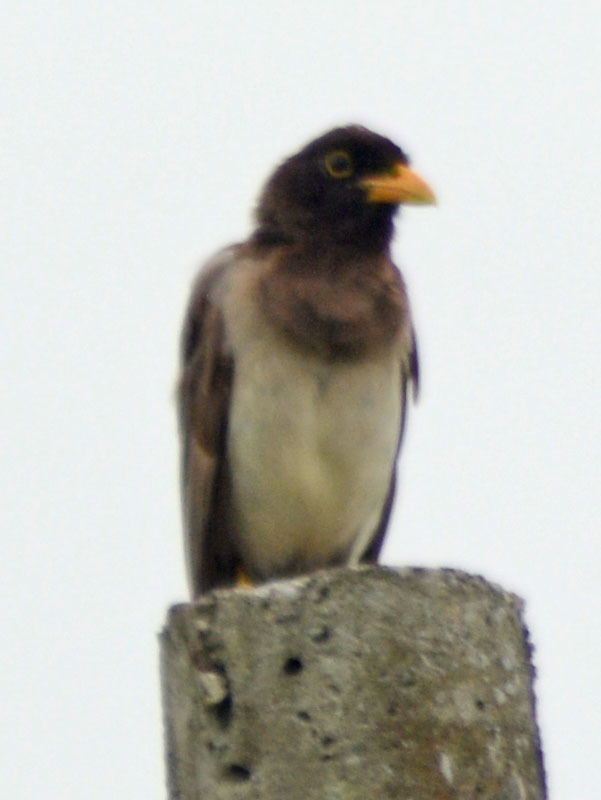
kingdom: Animalia
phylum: Chordata
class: Aves
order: Passeriformes
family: Corvidae
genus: Psilorhinus
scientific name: Psilorhinus morio
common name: Brown jay
